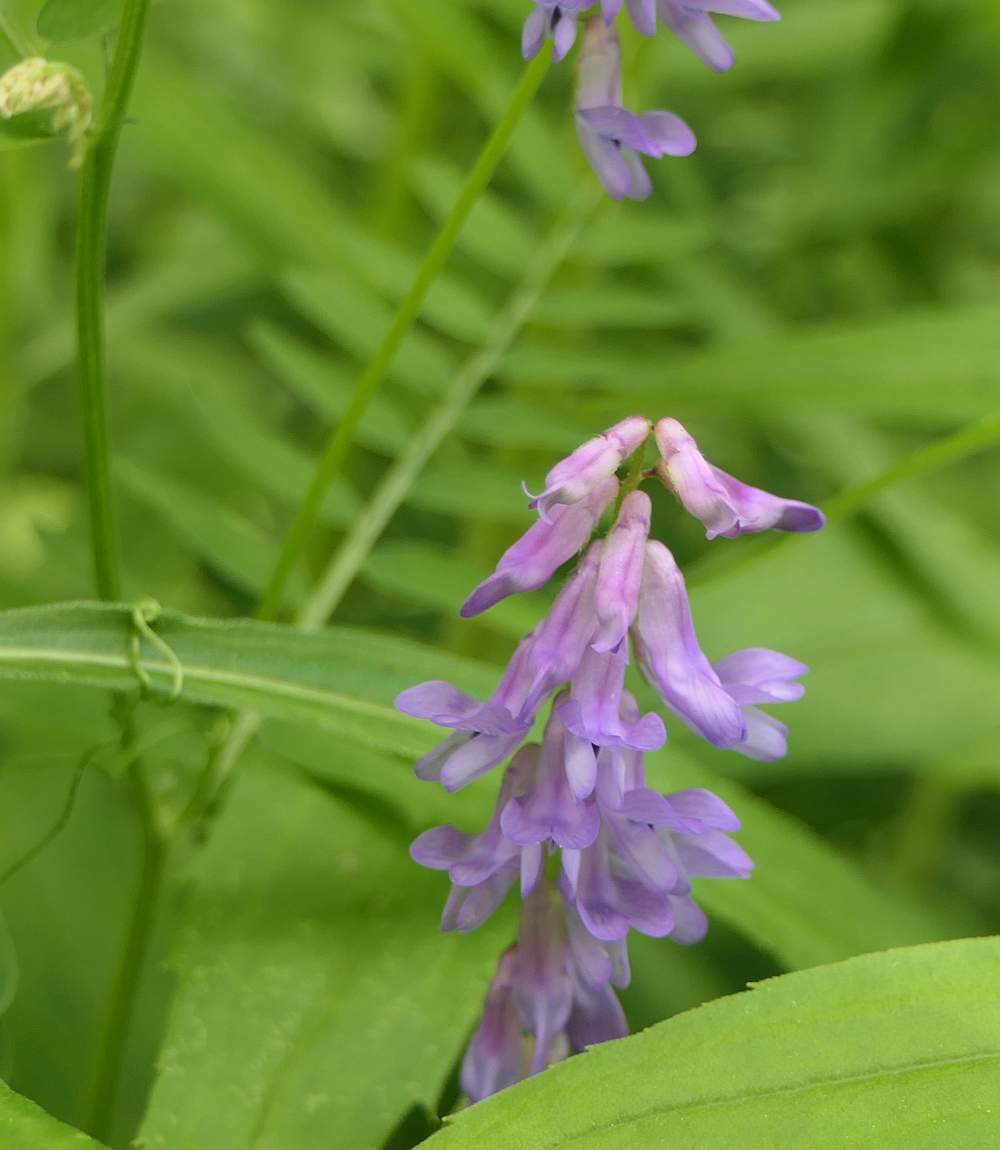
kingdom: Plantae
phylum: Tracheophyta
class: Magnoliopsida
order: Fabales
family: Fabaceae
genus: Vicia
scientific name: Vicia cracca
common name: Bird vetch
